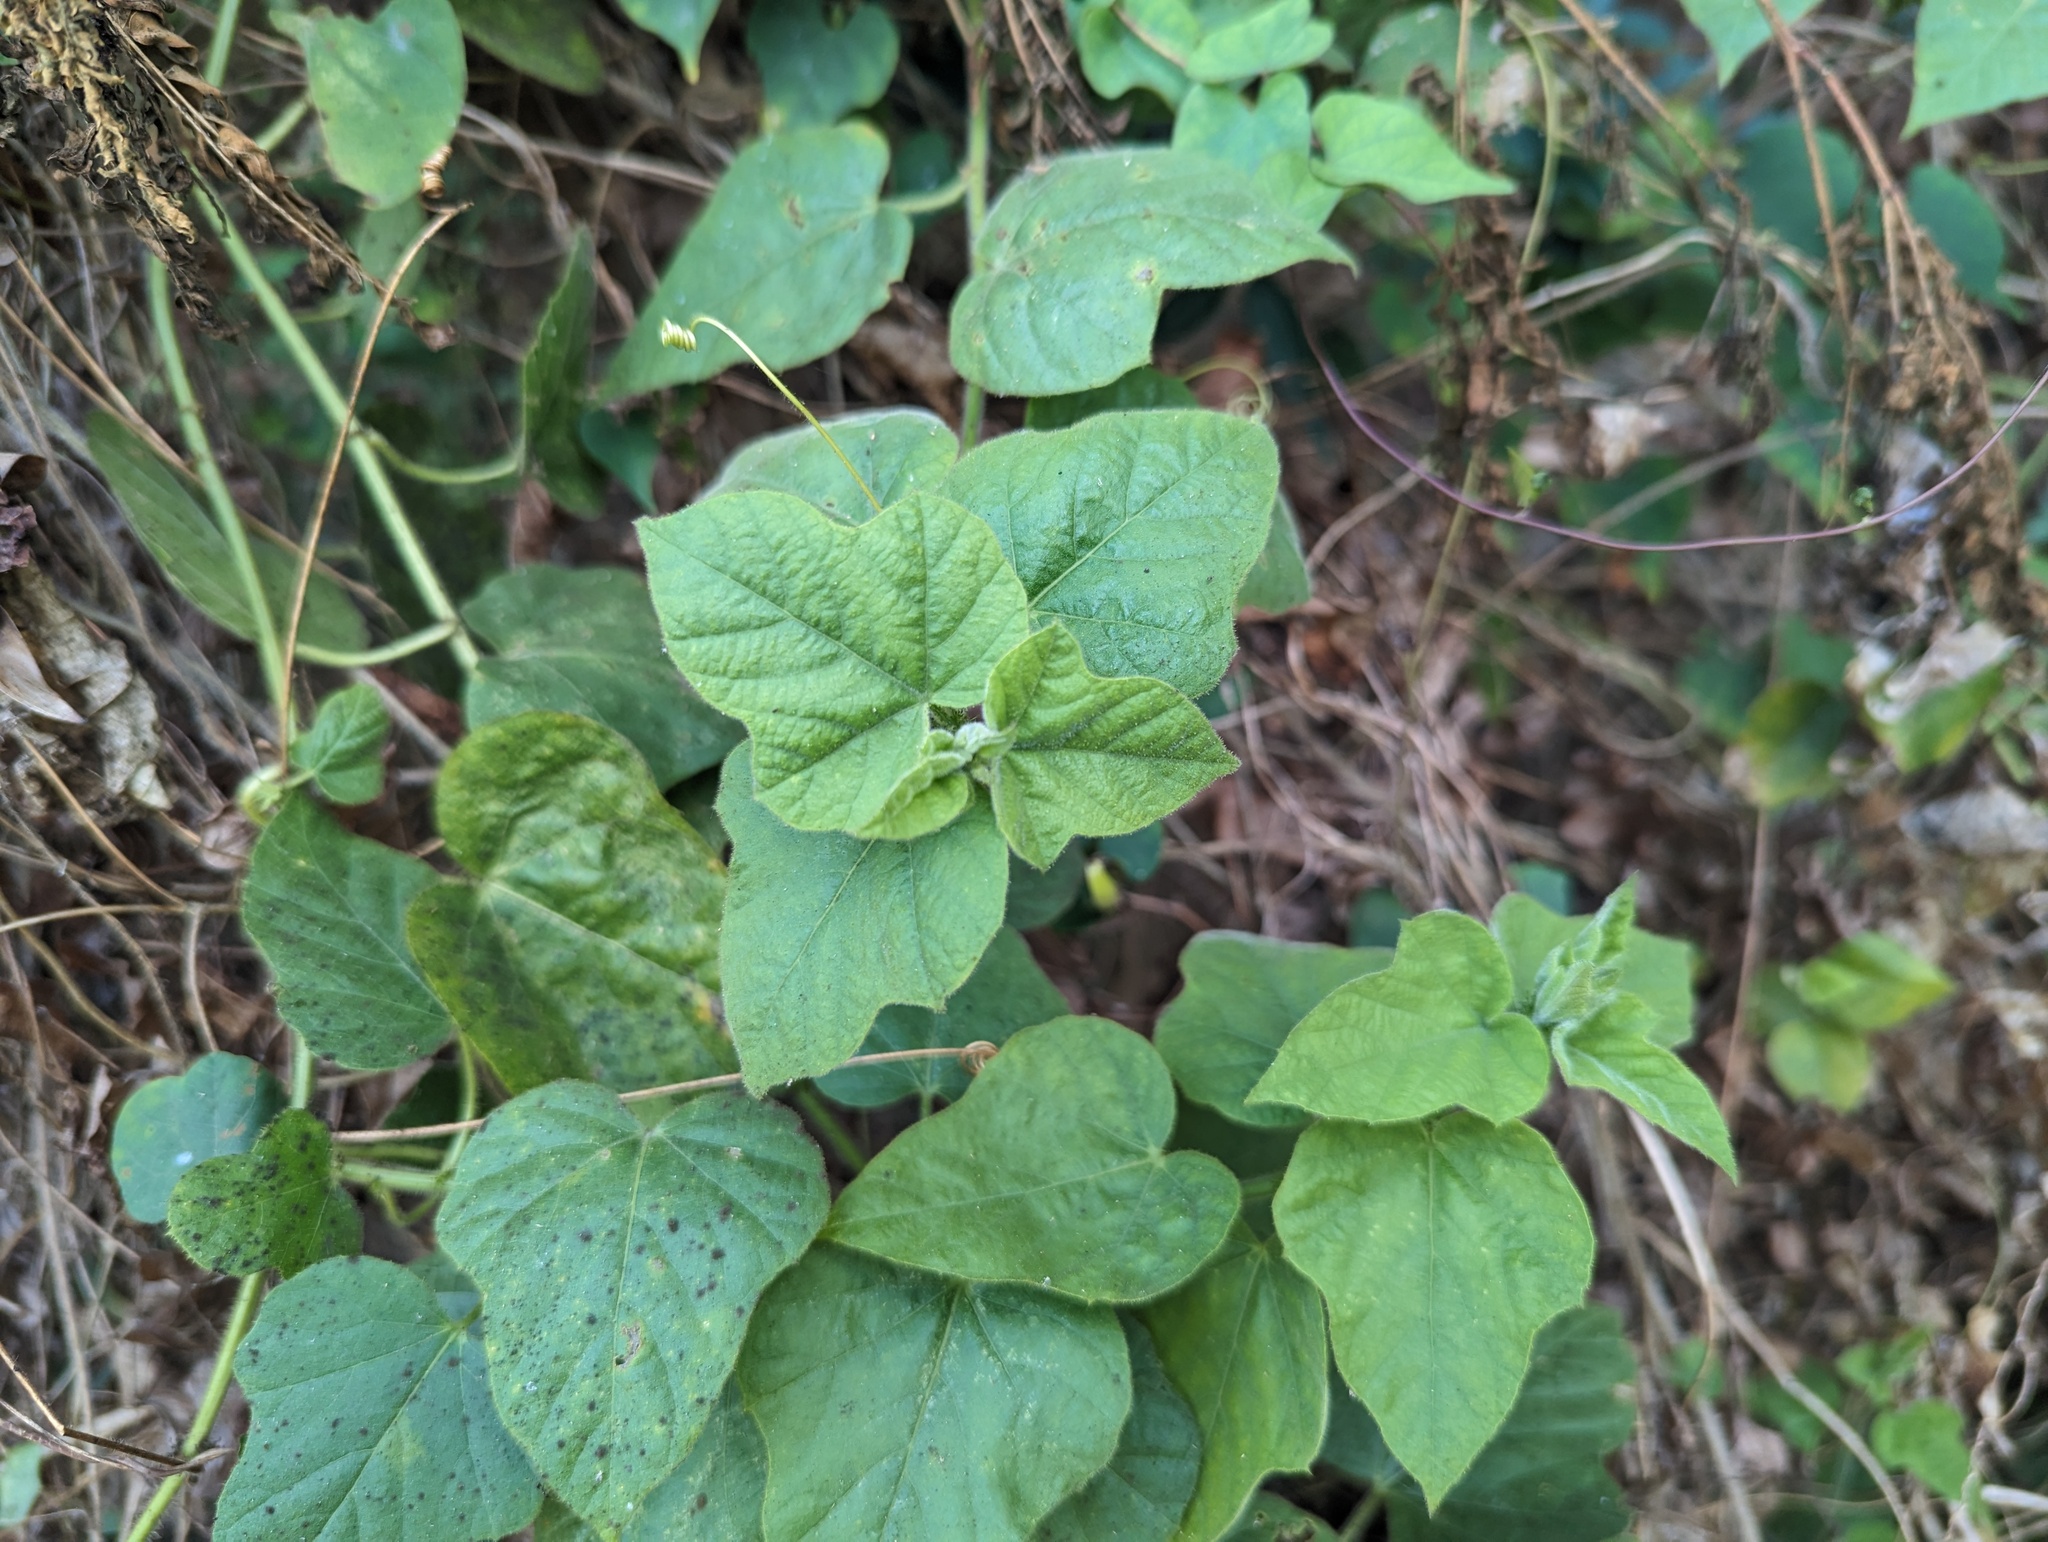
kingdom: Plantae
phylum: Tracheophyta
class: Magnoliopsida
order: Malpighiales
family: Passifloraceae
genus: Passiflora
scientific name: Passiflora vesicaria
